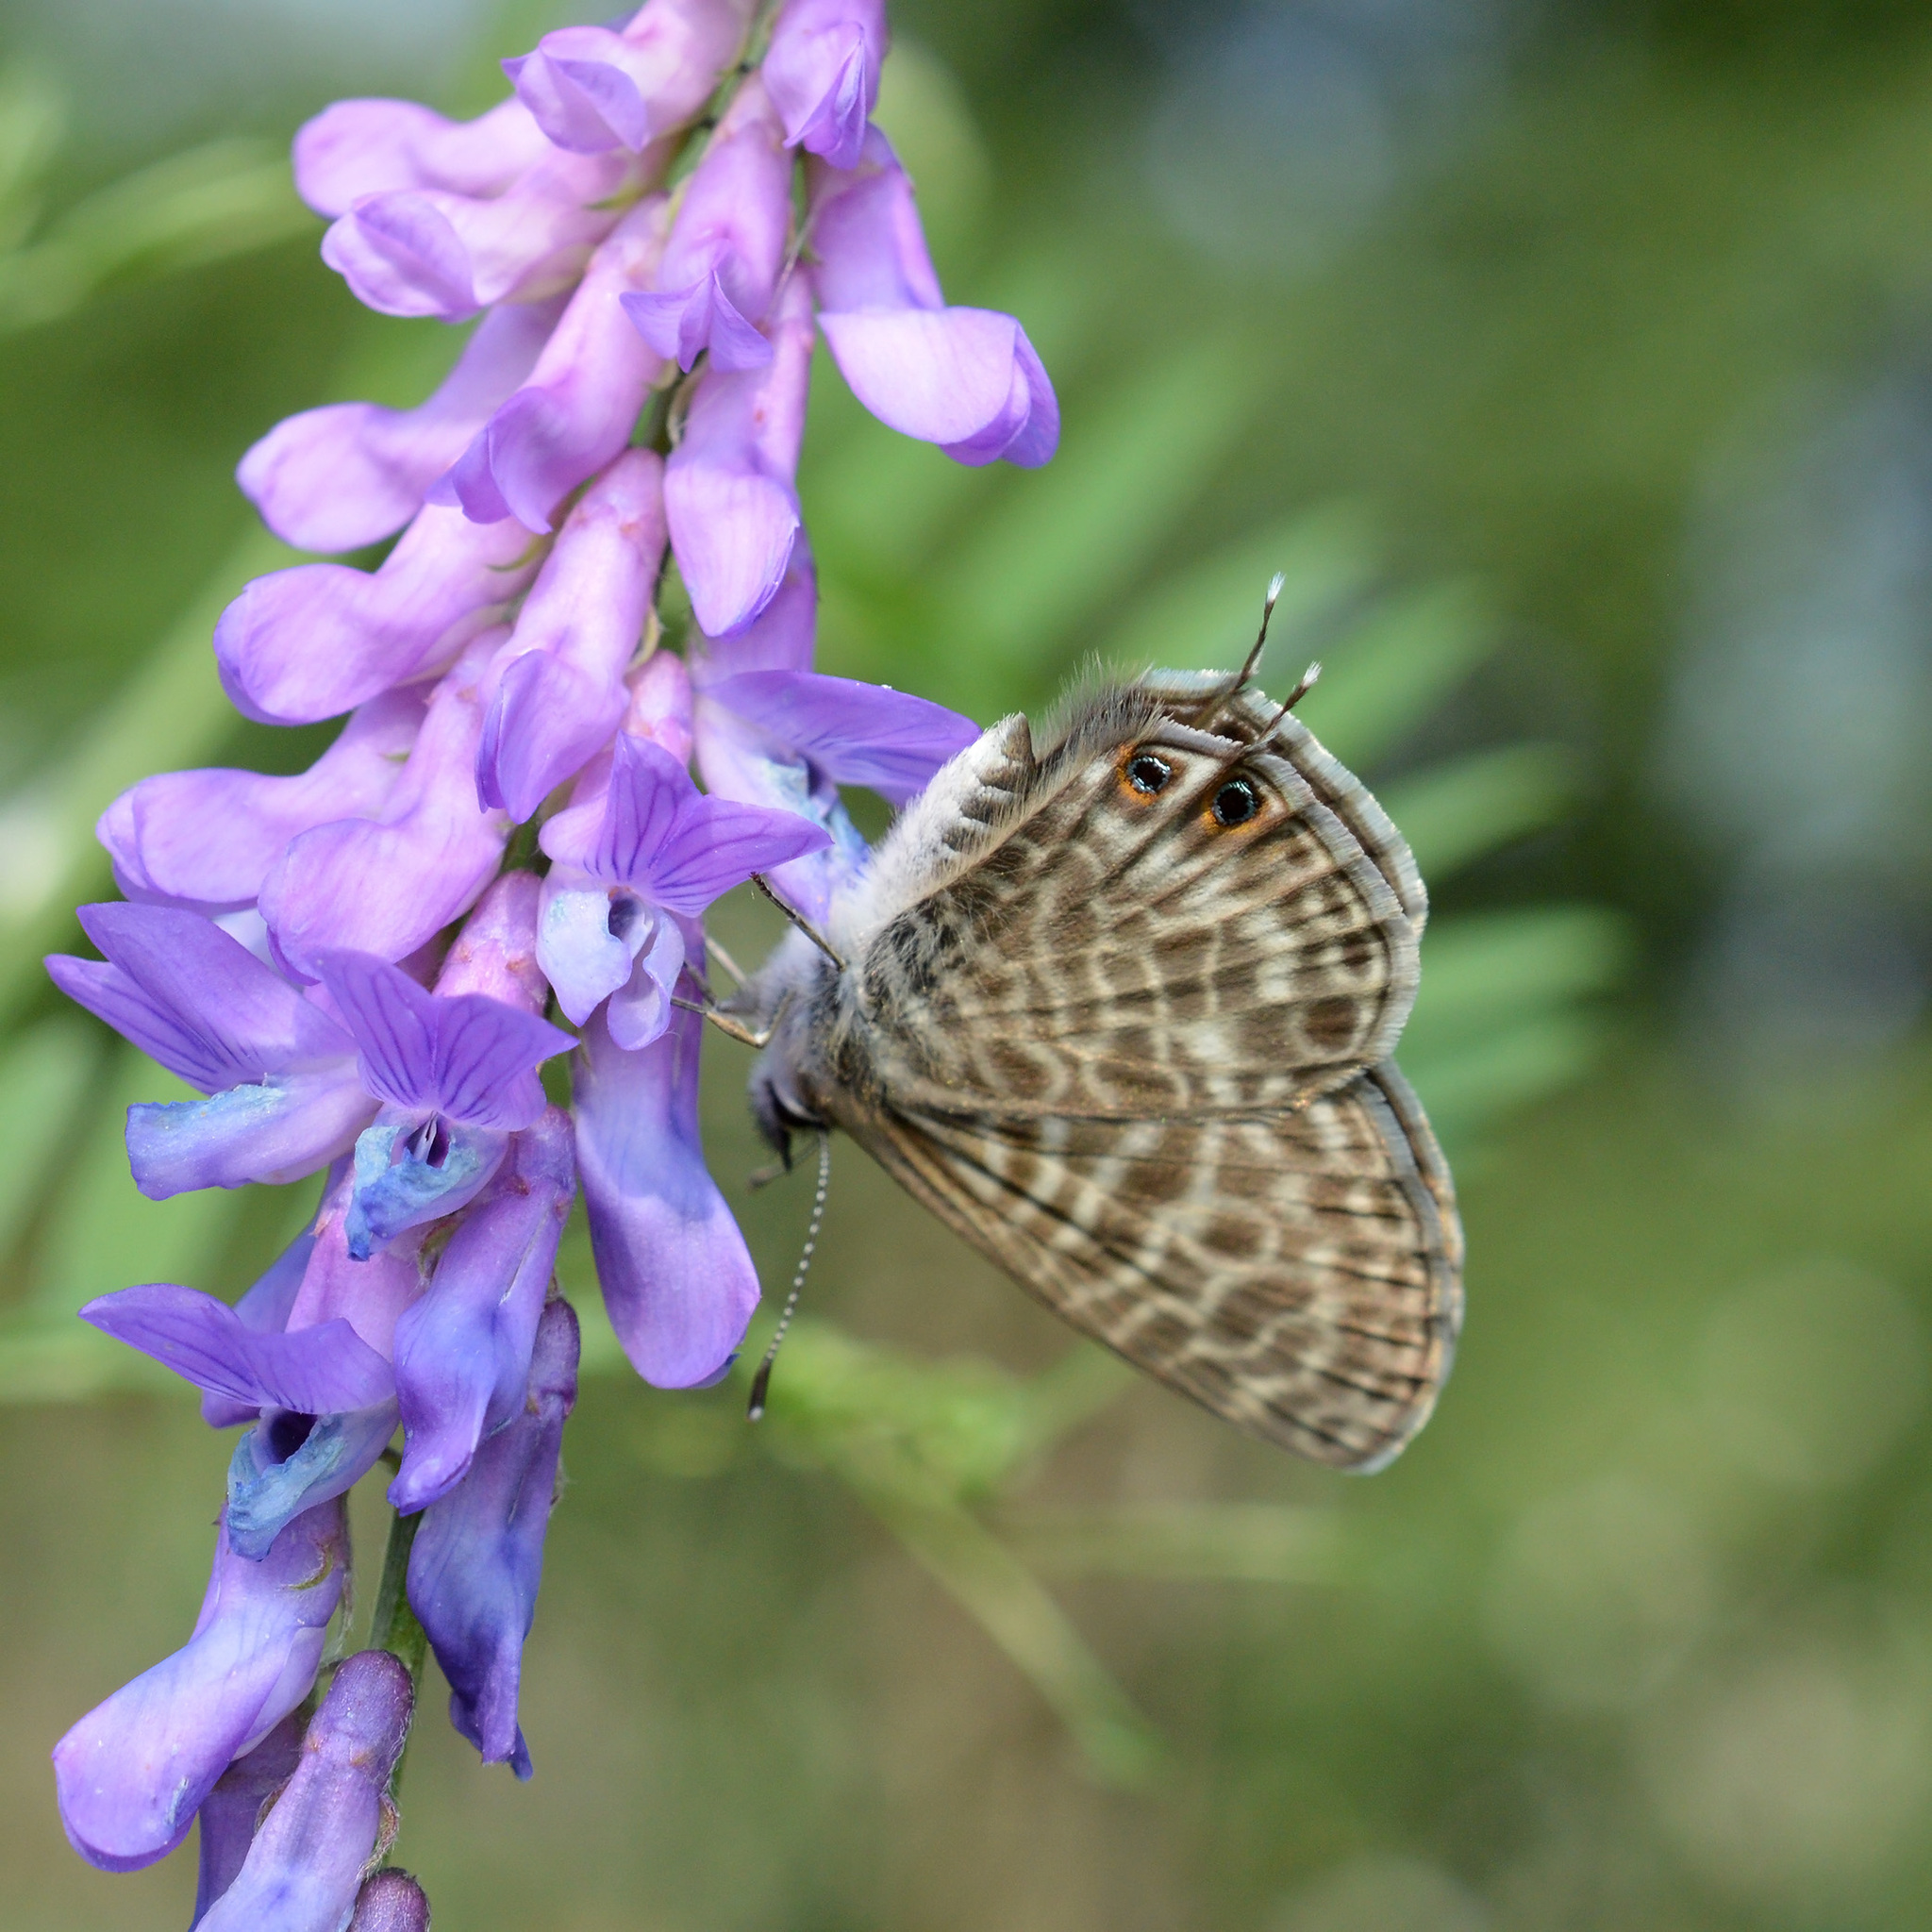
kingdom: Animalia
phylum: Arthropoda
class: Insecta
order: Lepidoptera
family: Lycaenidae
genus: Leptotes
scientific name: Leptotes pirithous
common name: Lang's short-tailed blue
